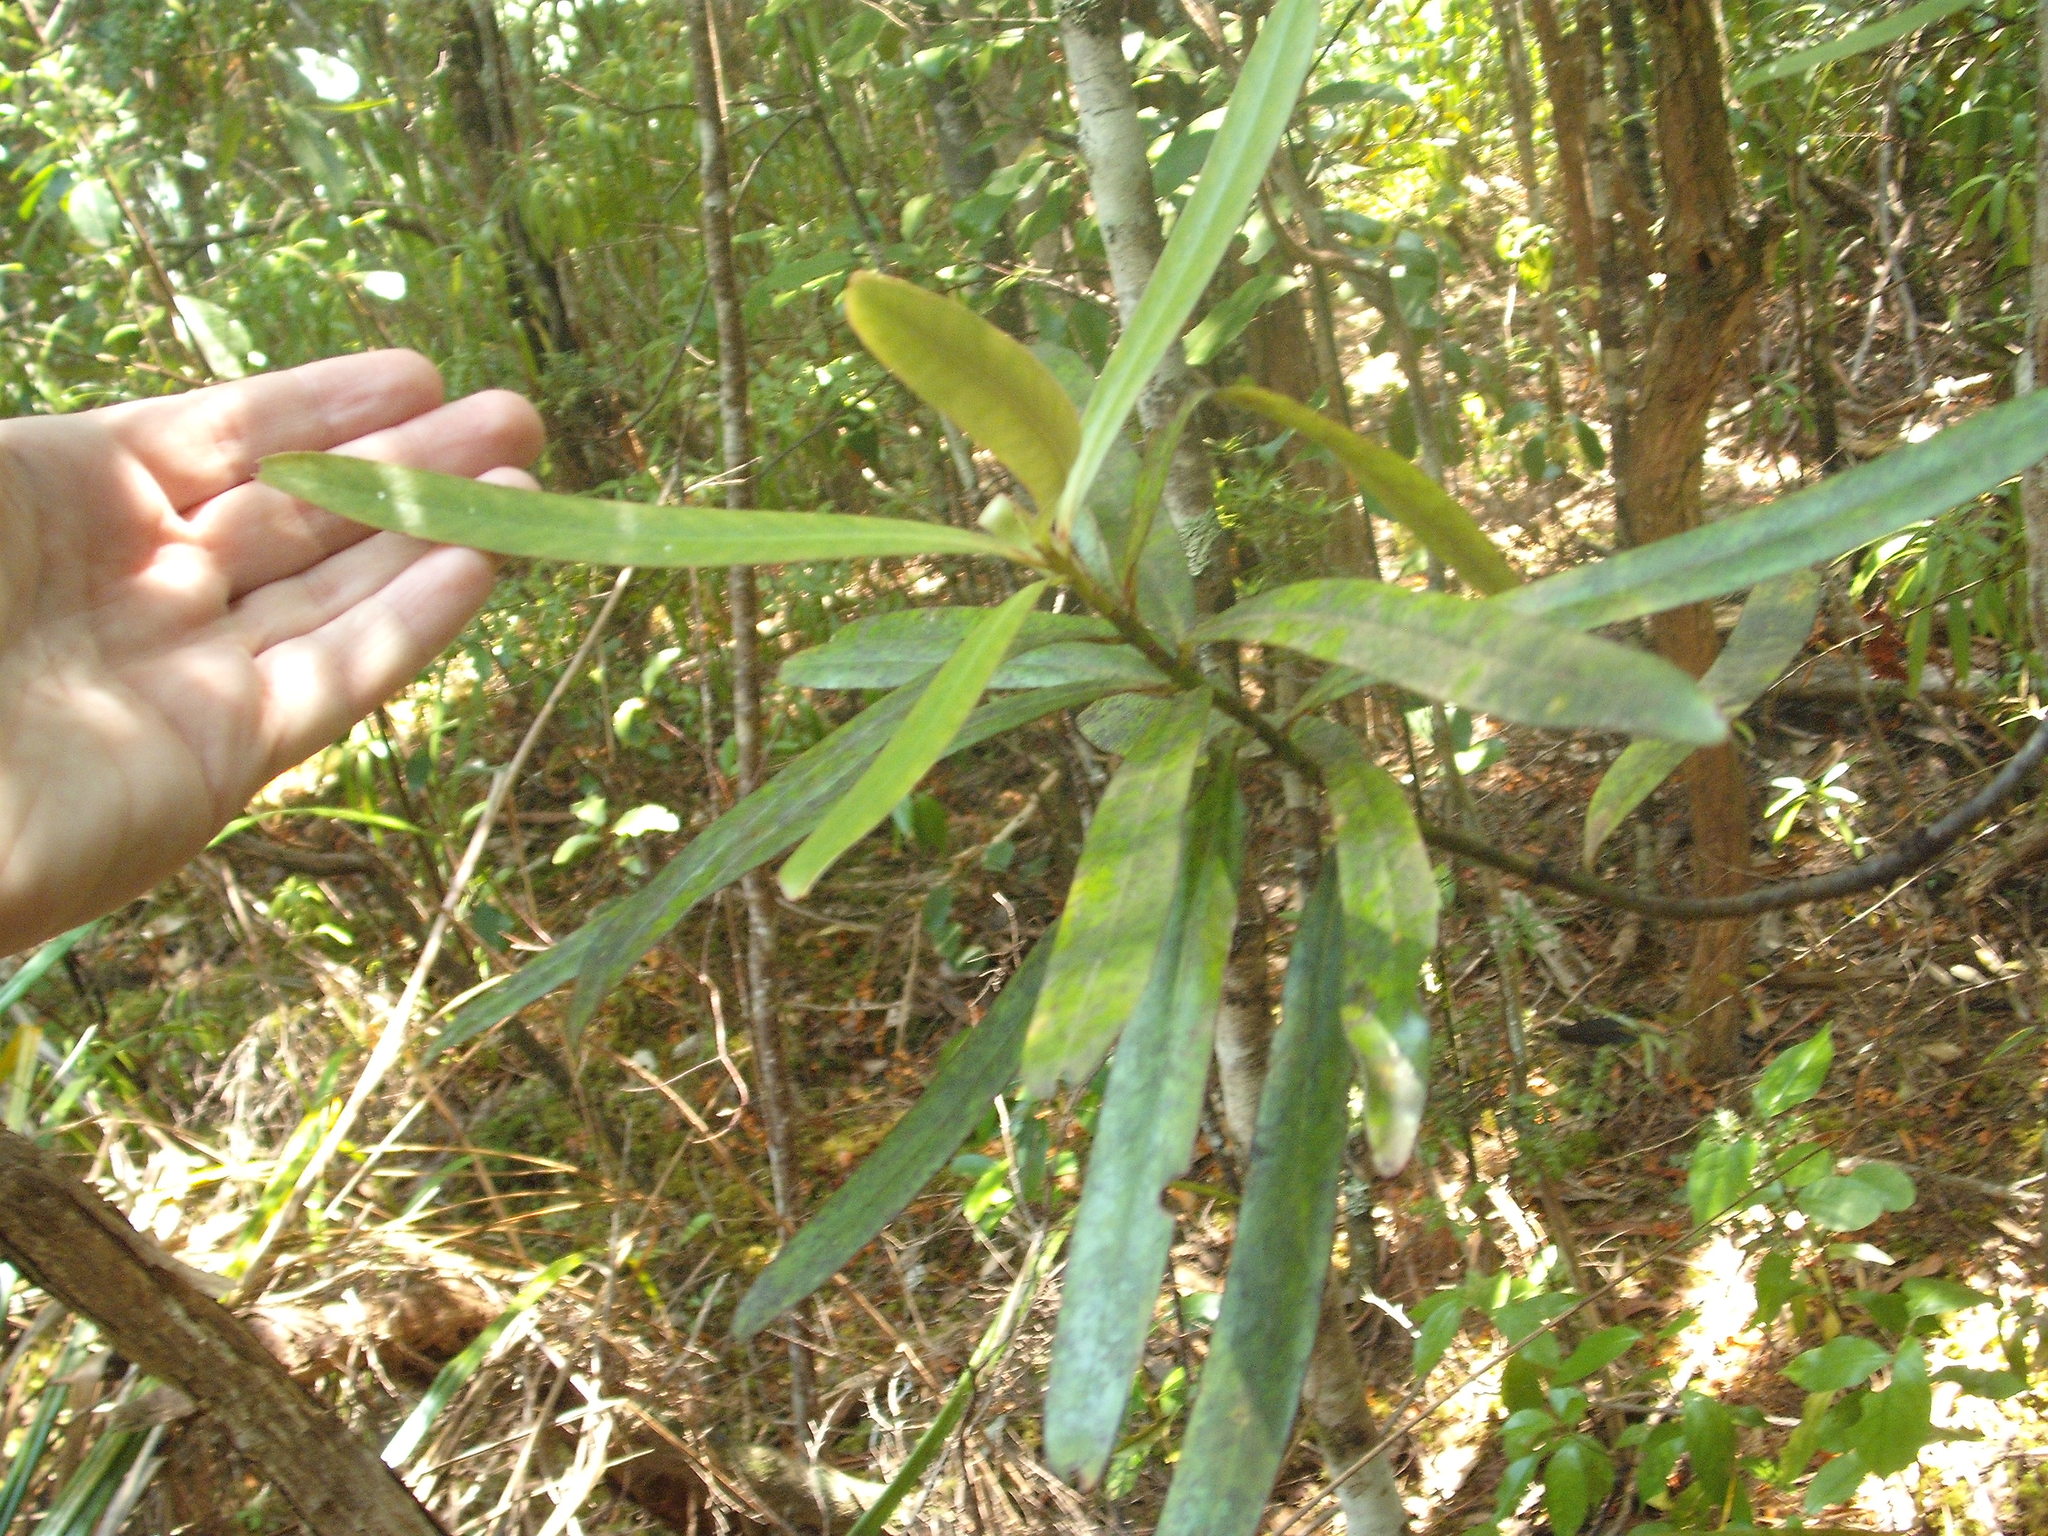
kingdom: Plantae
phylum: Tracheophyta
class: Magnoliopsida
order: Ericales
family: Primulaceae
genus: Myrsine
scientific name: Myrsine salicina
